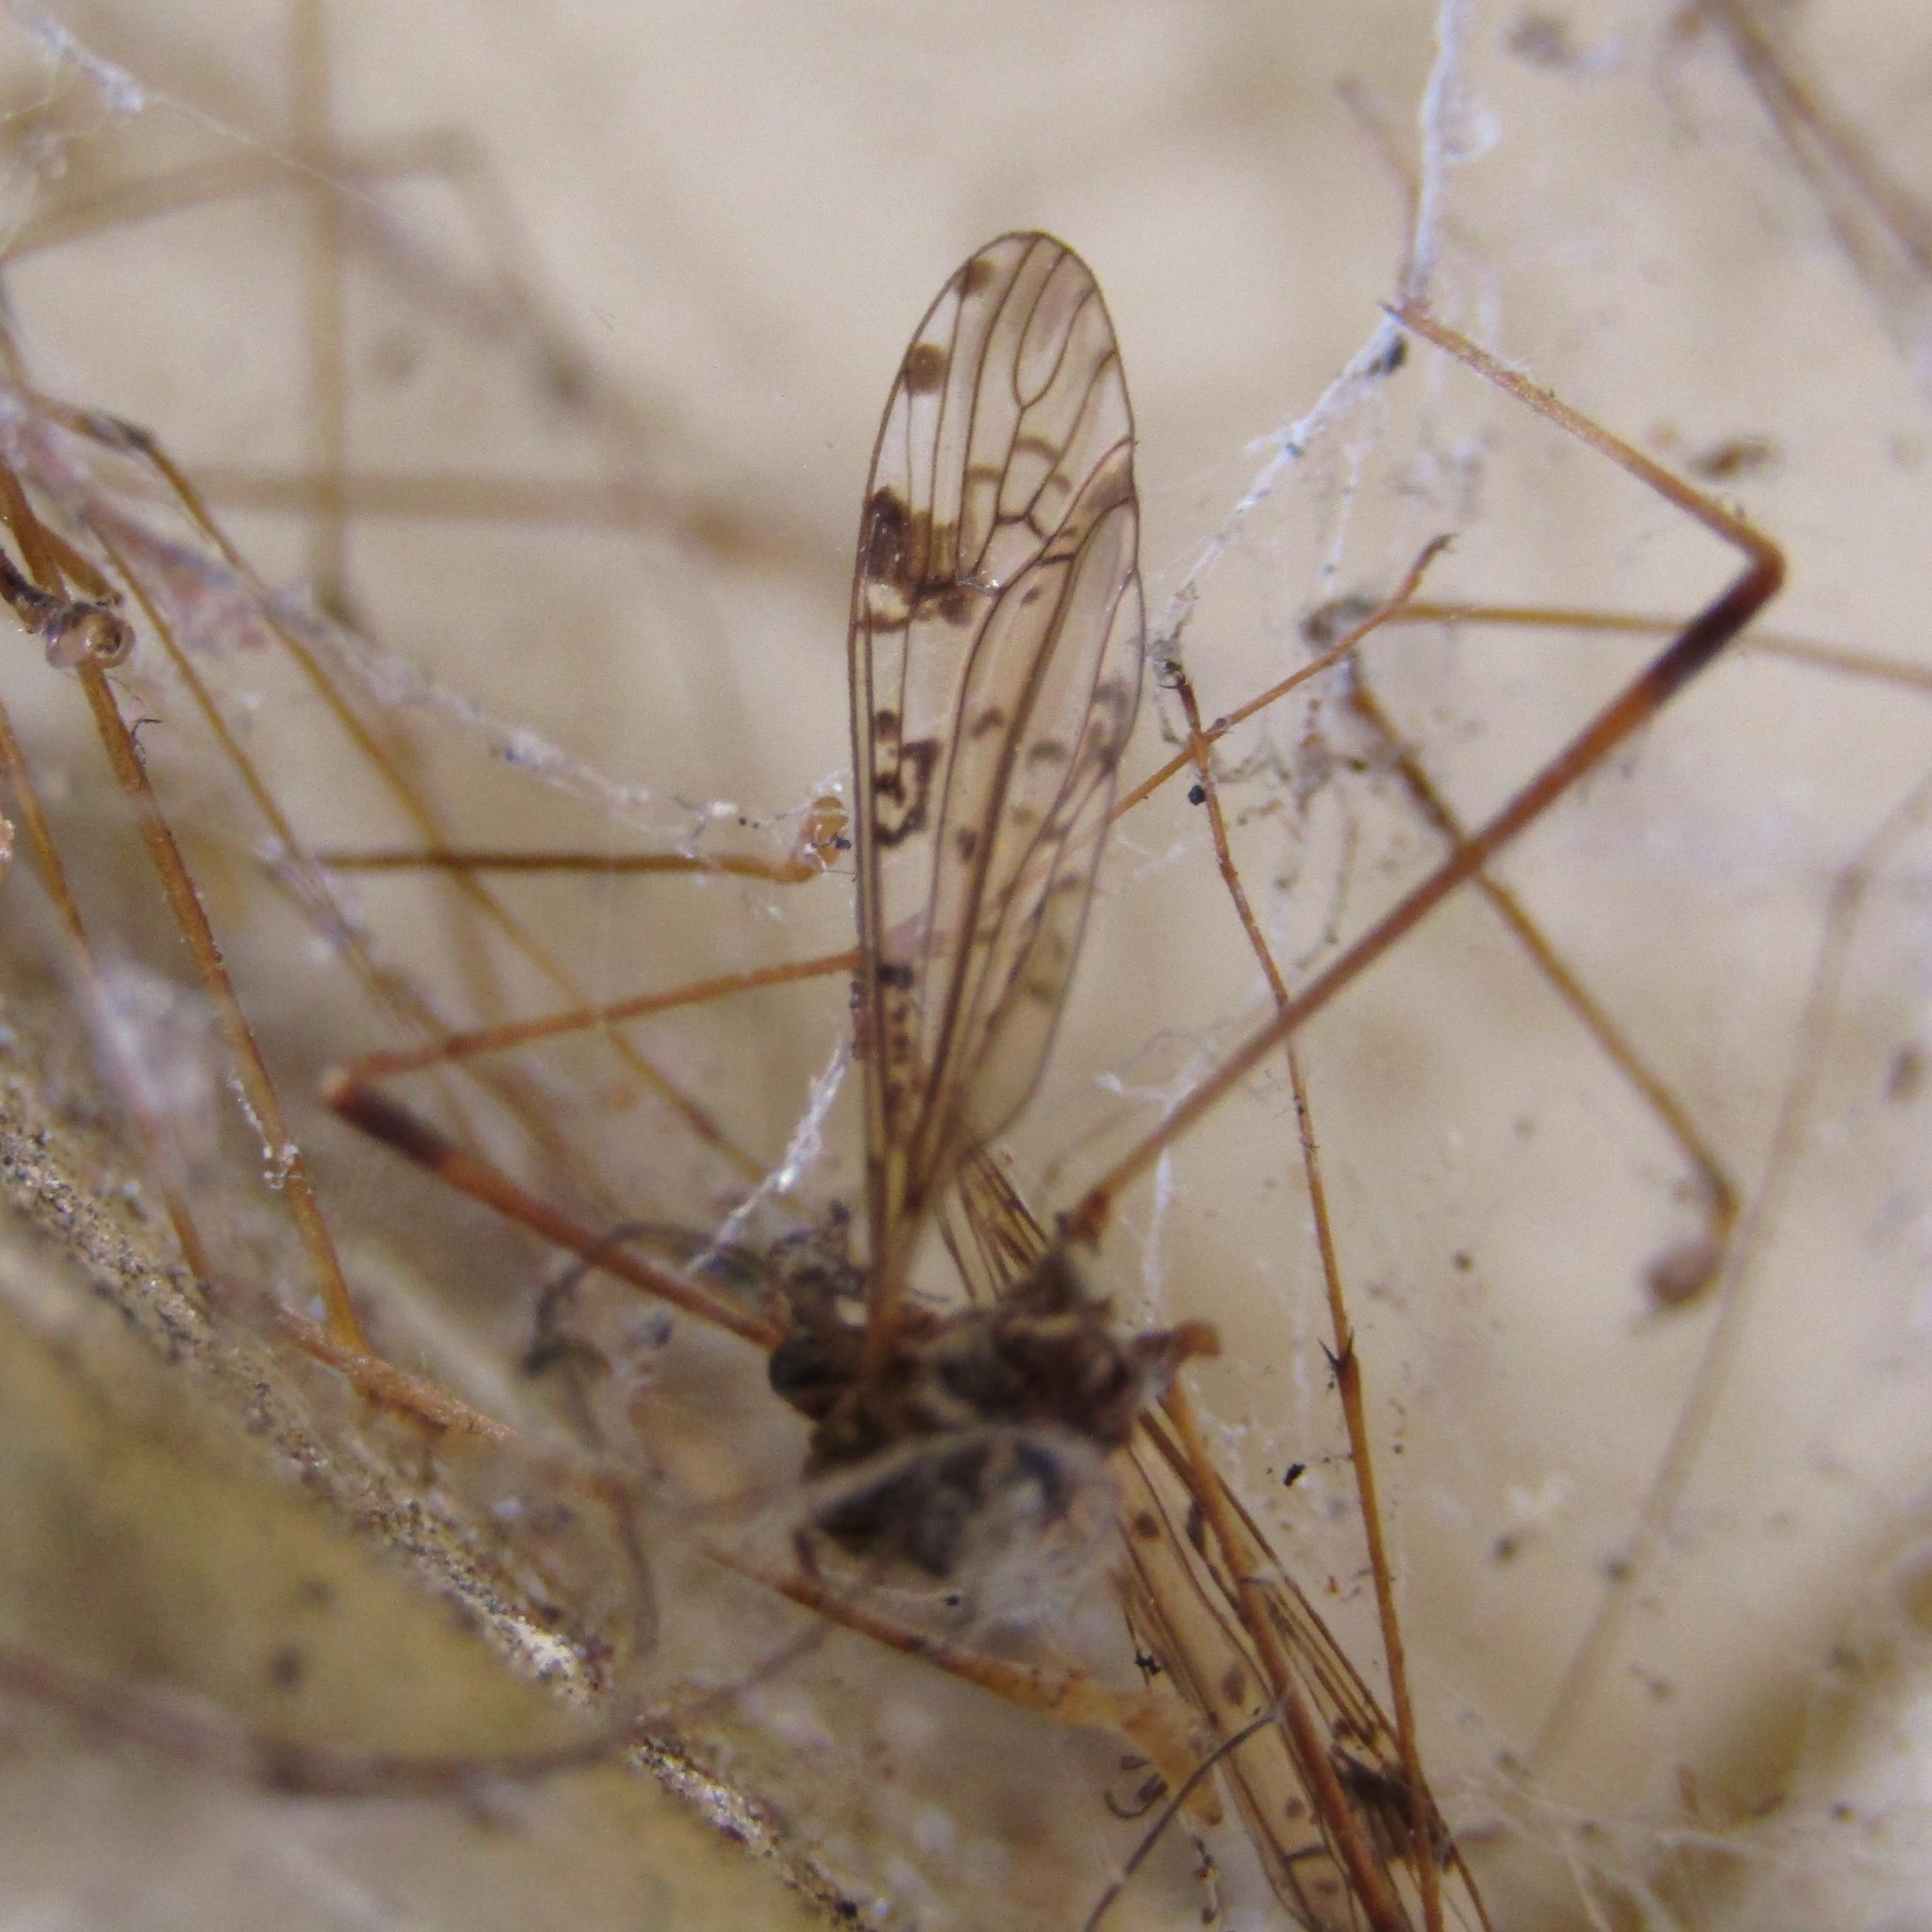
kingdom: Animalia
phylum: Arthropoda
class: Insecta
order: Diptera
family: Limoniidae
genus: Gynoplistia
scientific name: Gynoplistia notabilis
